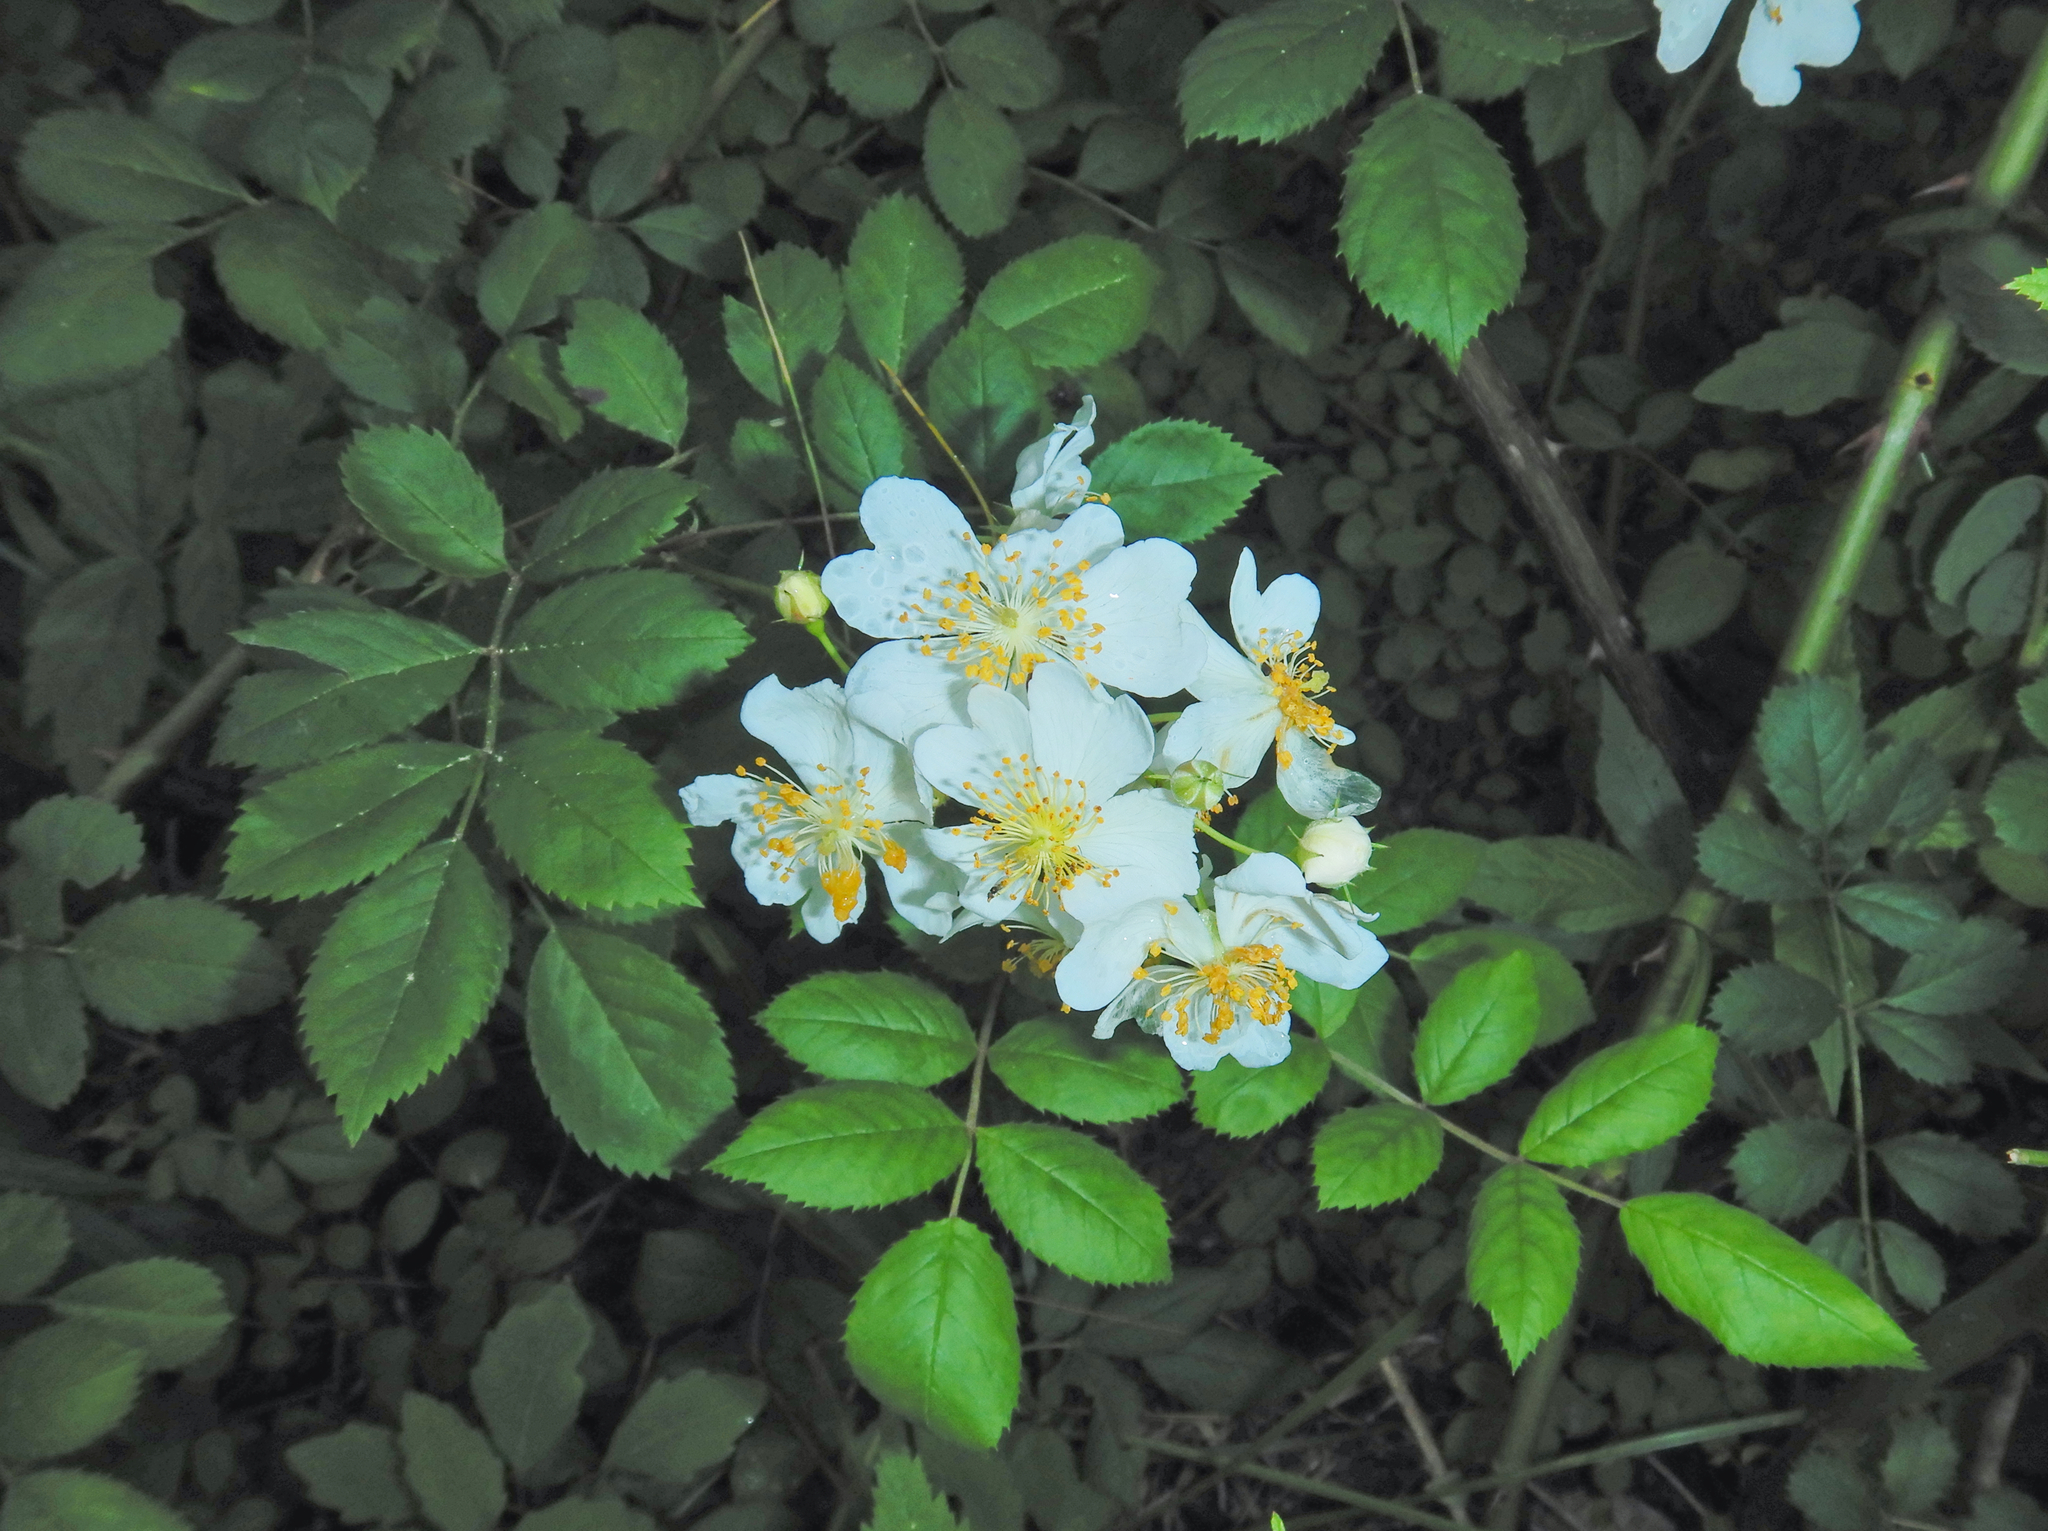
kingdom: Plantae
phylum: Tracheophyta
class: Magnoliopsida
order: Rosales
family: Rosaceae
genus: Rosa
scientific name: Rosa multiflora
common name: Multiflora rose
